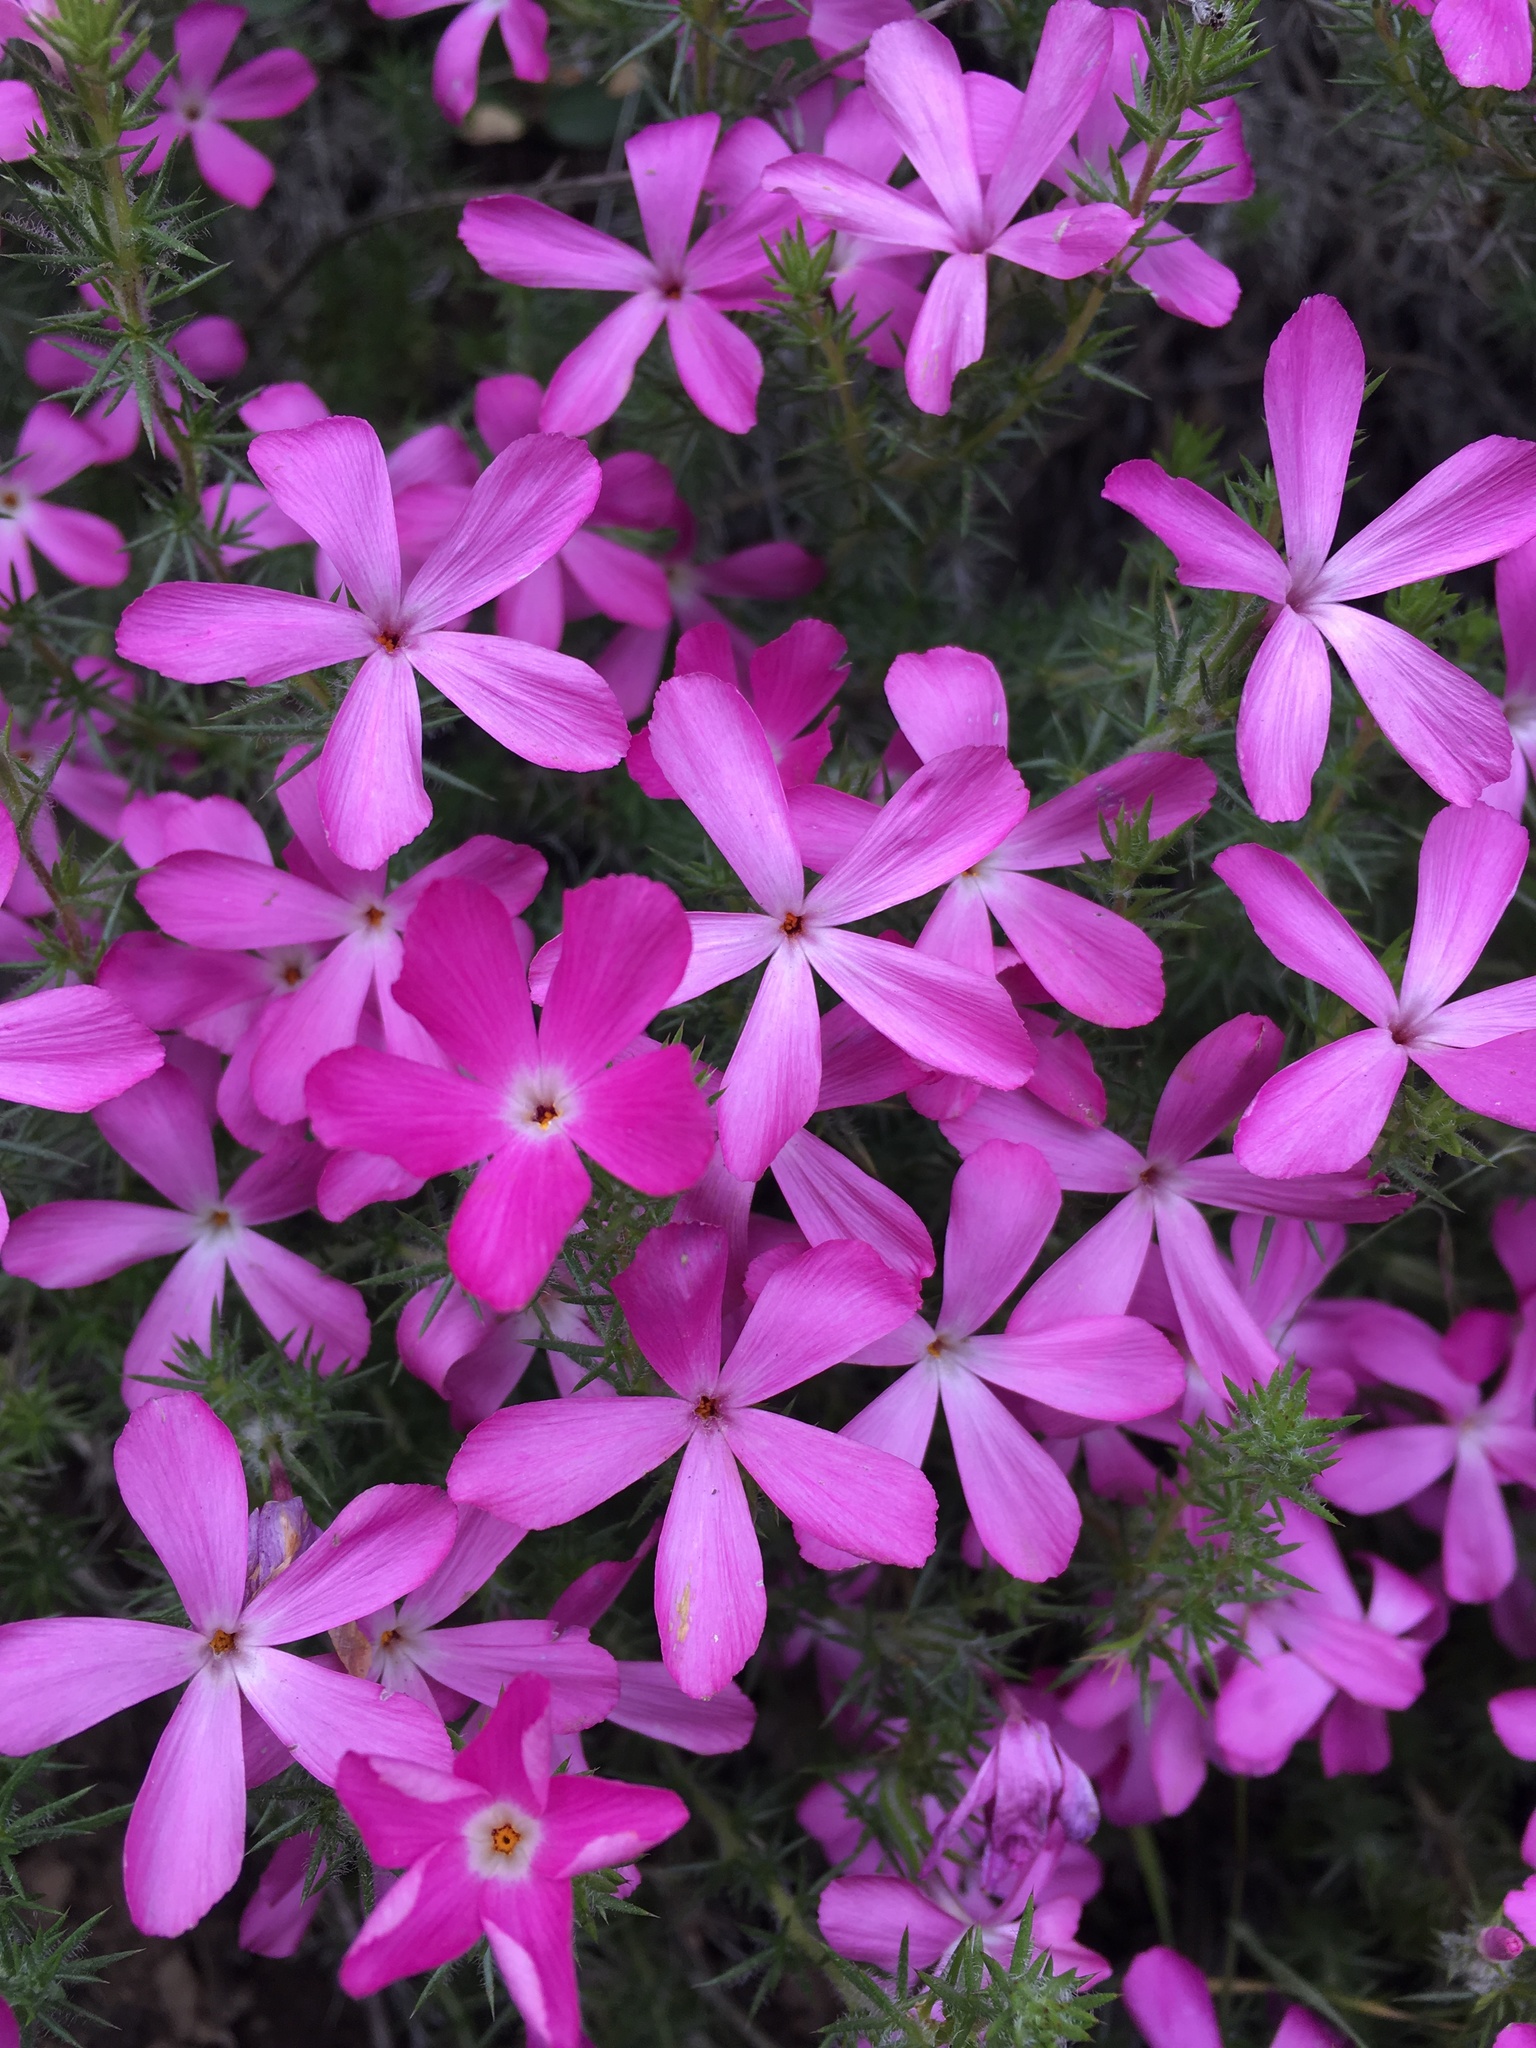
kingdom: Plantae
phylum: Tracheophyta
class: Magnoliopsida
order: Ericales
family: Polemoniaceae
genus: Linanthus
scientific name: Linanthus californicus
